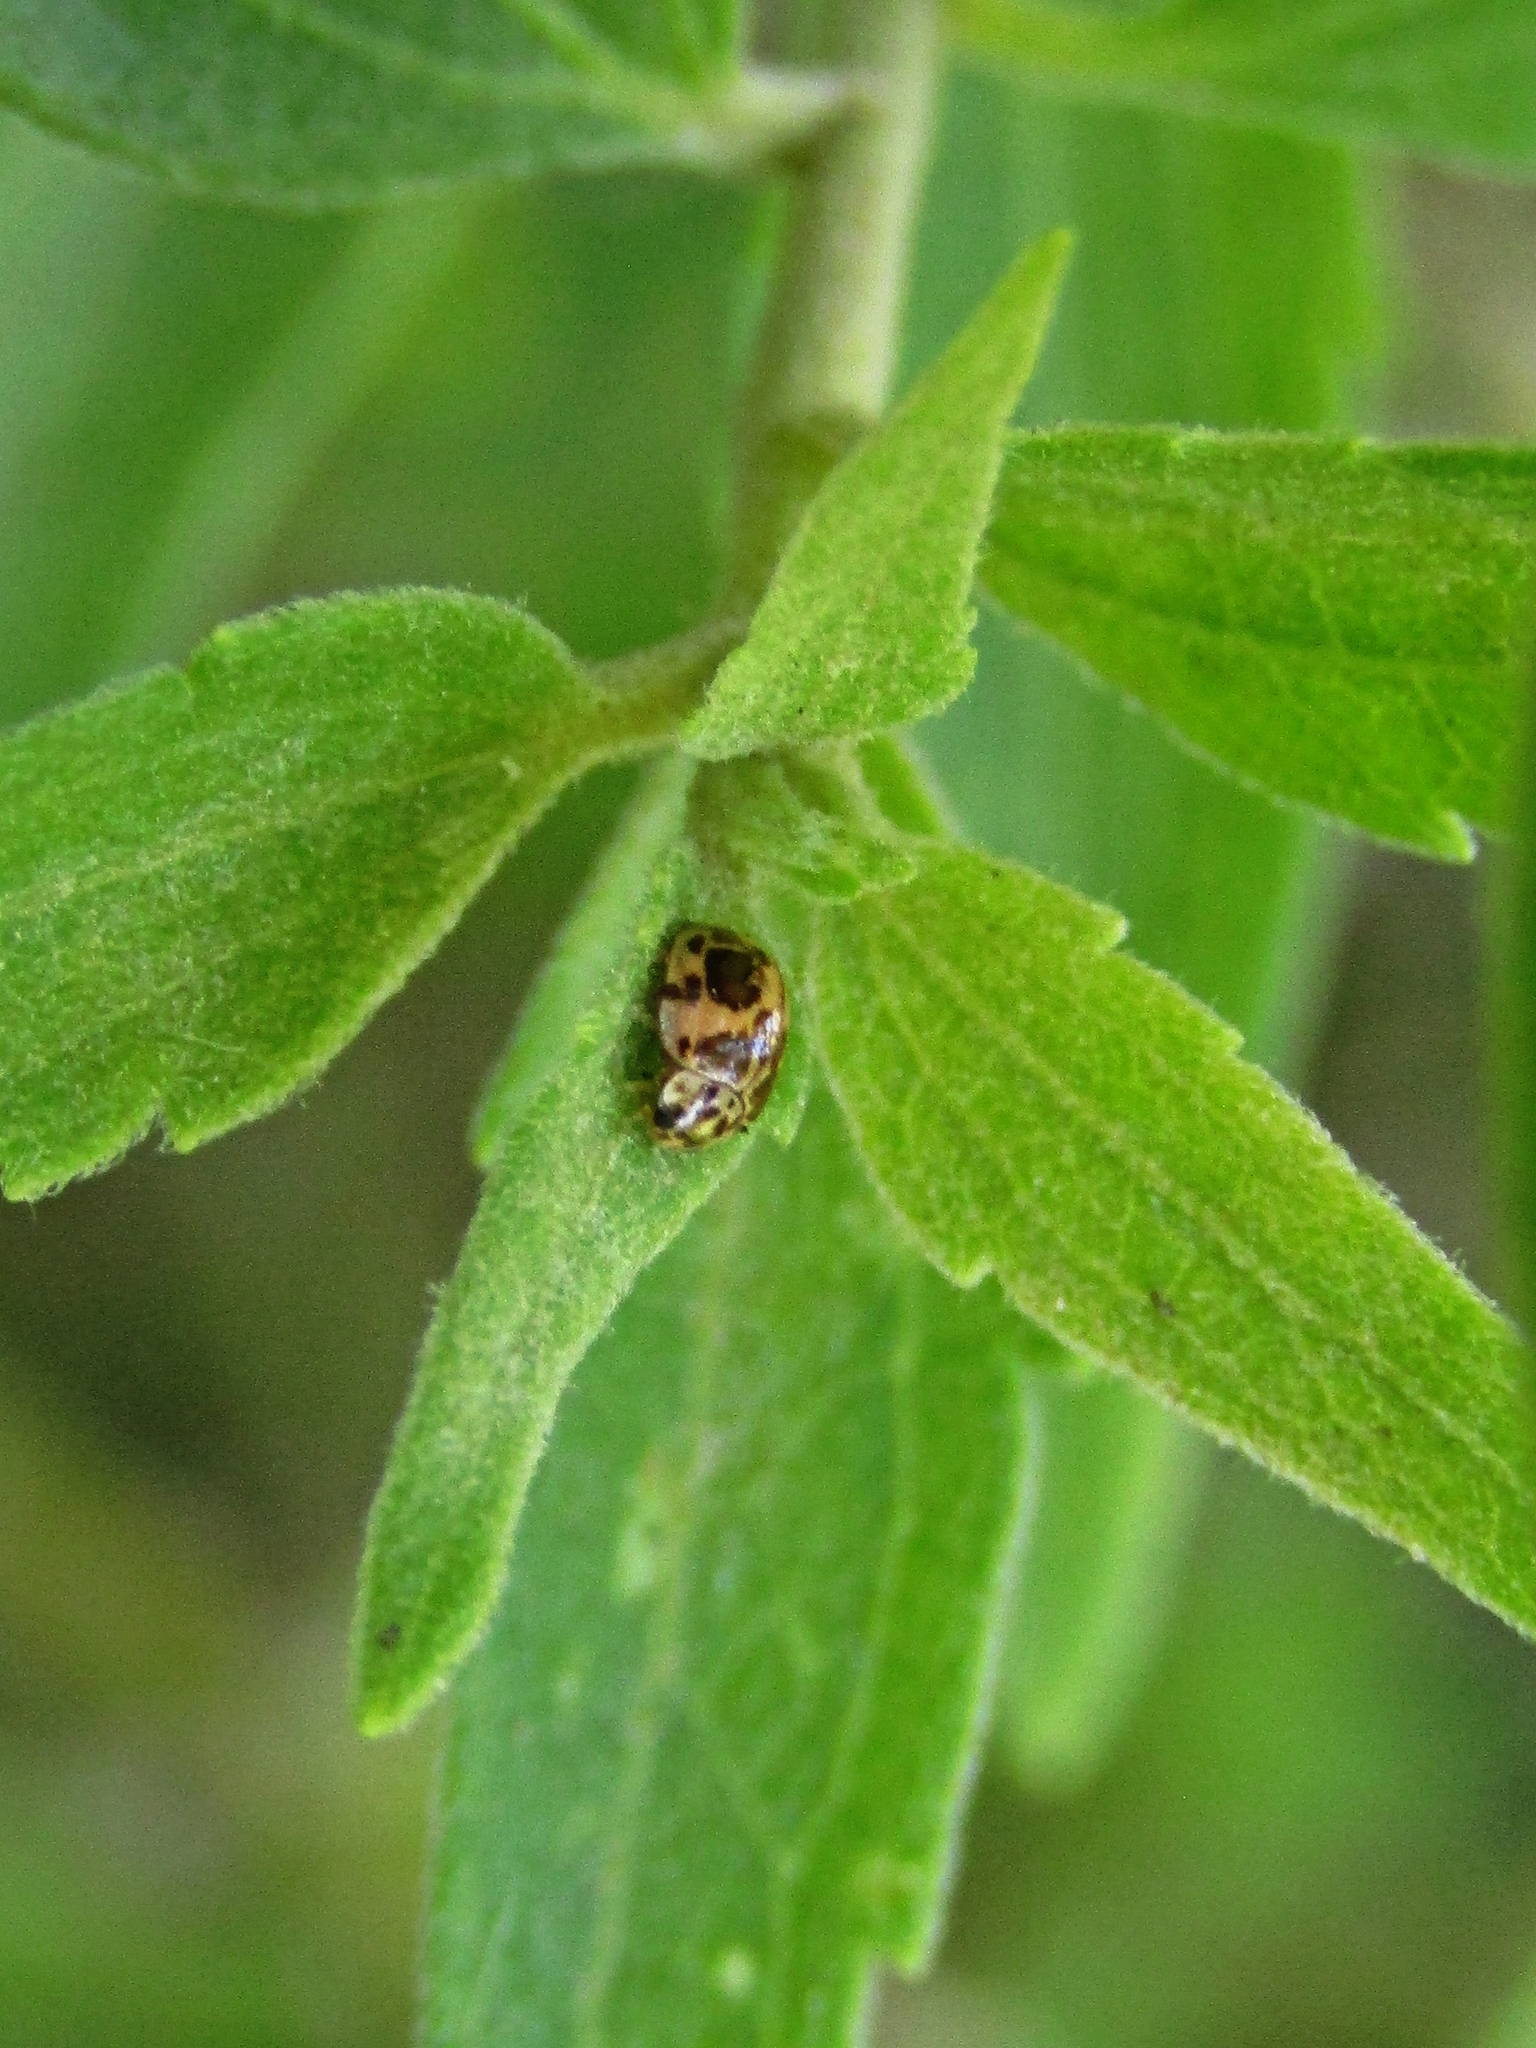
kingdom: Animalia
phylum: Arthropoda
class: Insecta
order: Coleoptera
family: Coccinellidae
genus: Psyllobora
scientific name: Psyllobora
